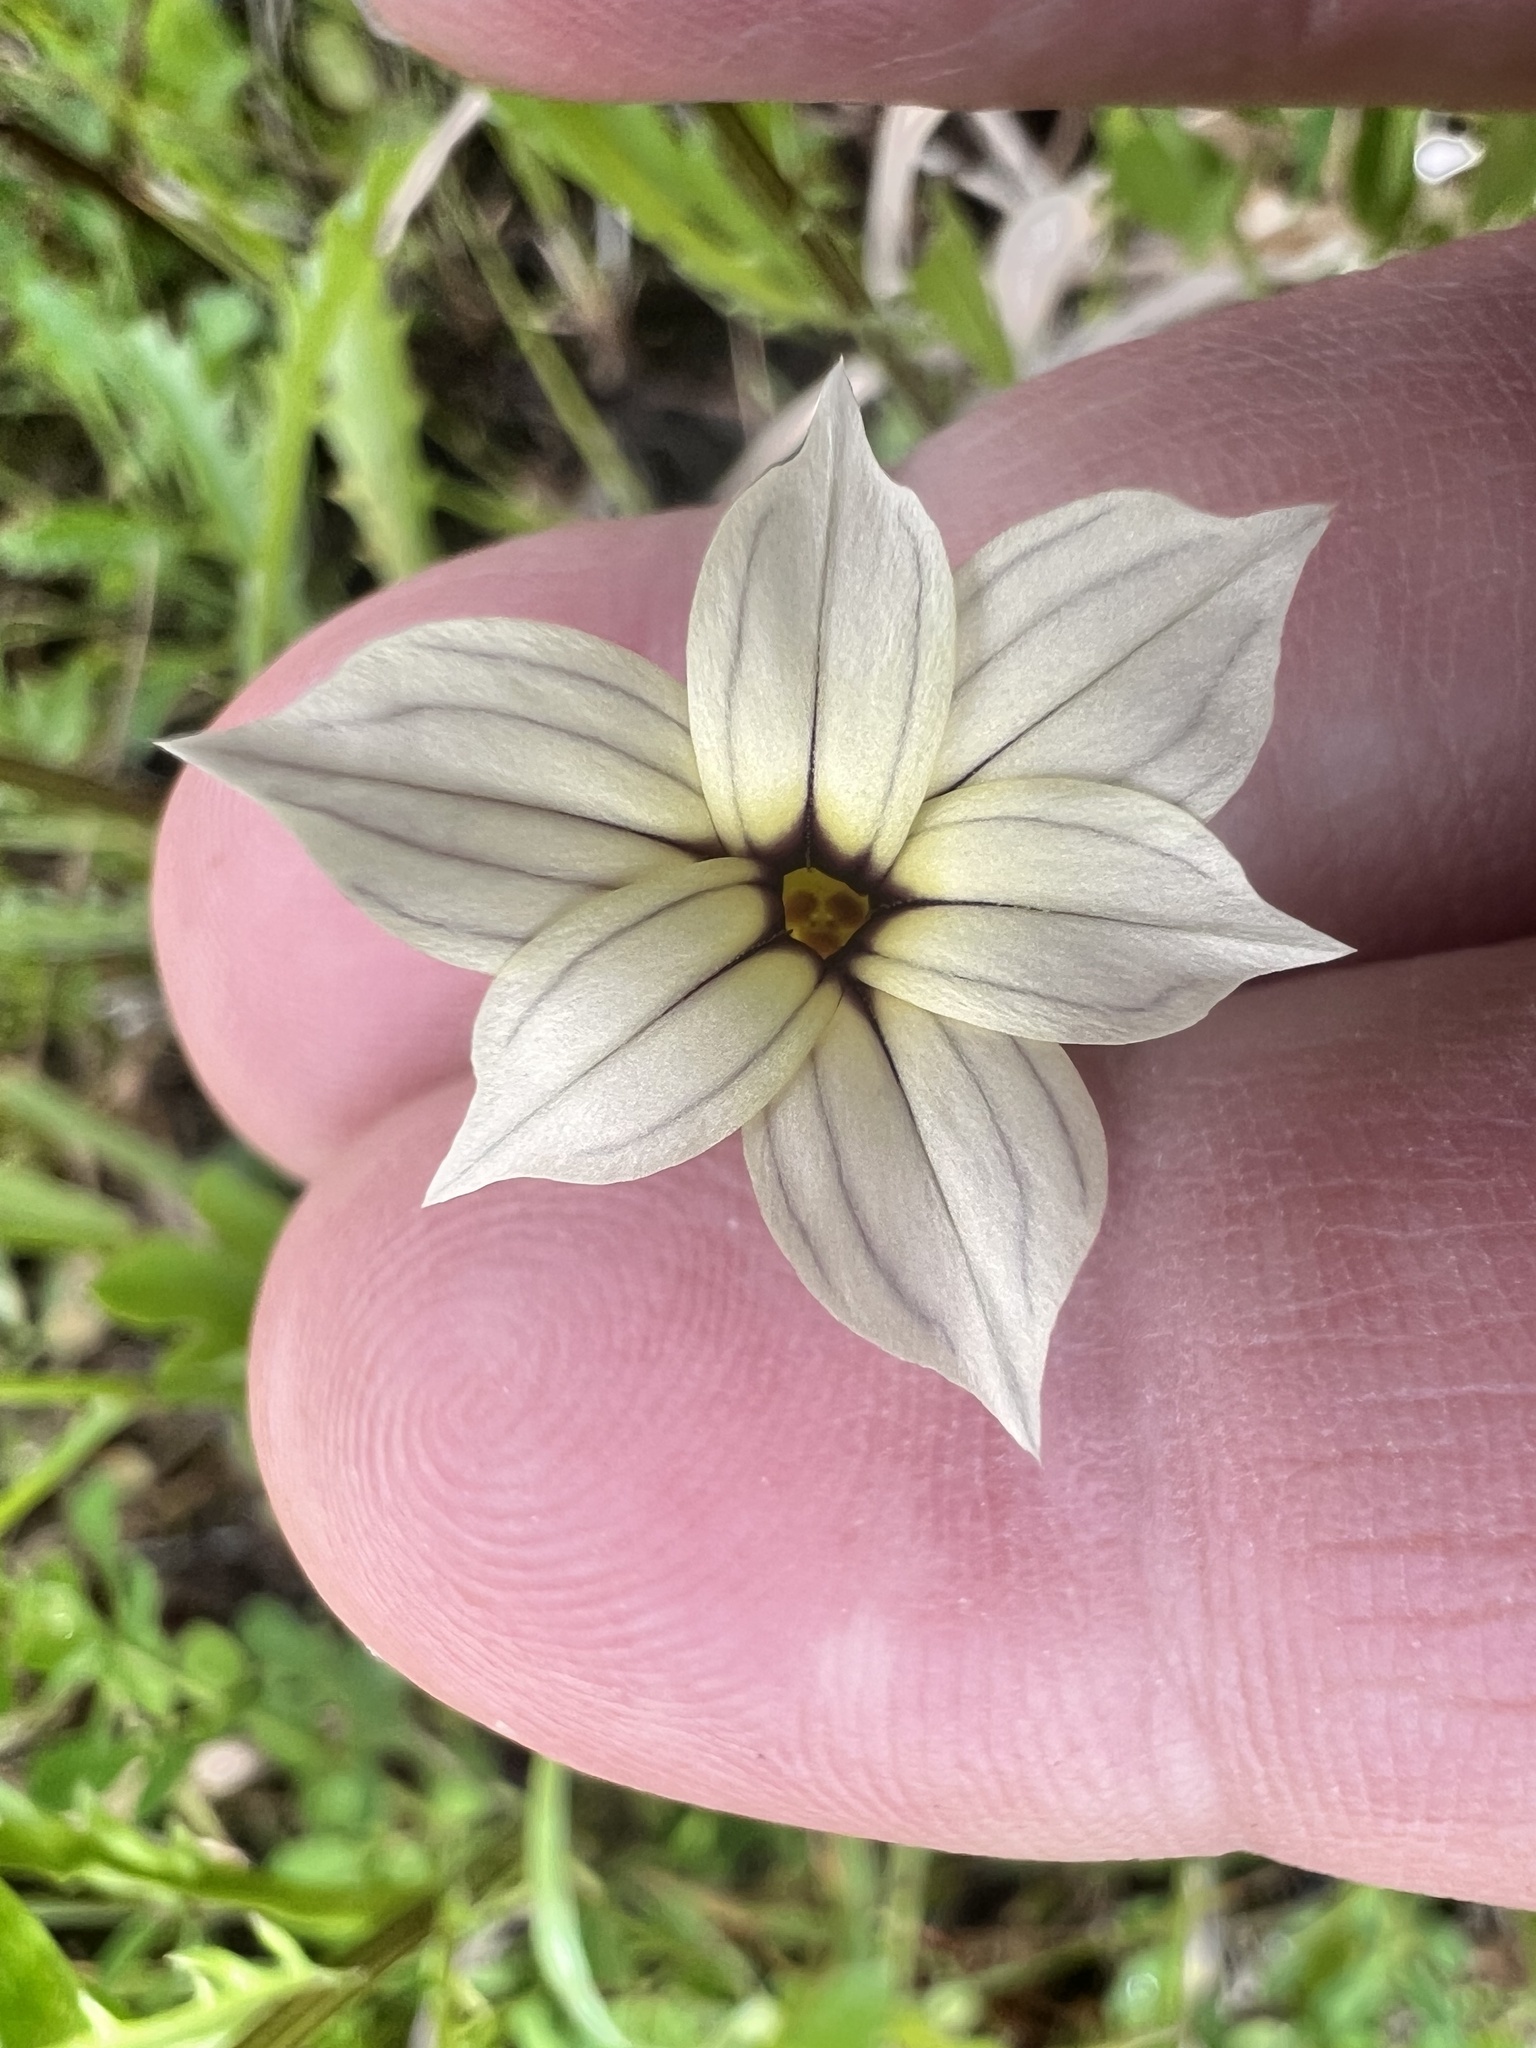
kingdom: Plantae
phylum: Tracheophyta
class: Liliopsida
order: Asparagales
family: Iridaceae
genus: Sisyrinchium
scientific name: Sisyrinchium micranthum
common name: Bermuda pigroot
